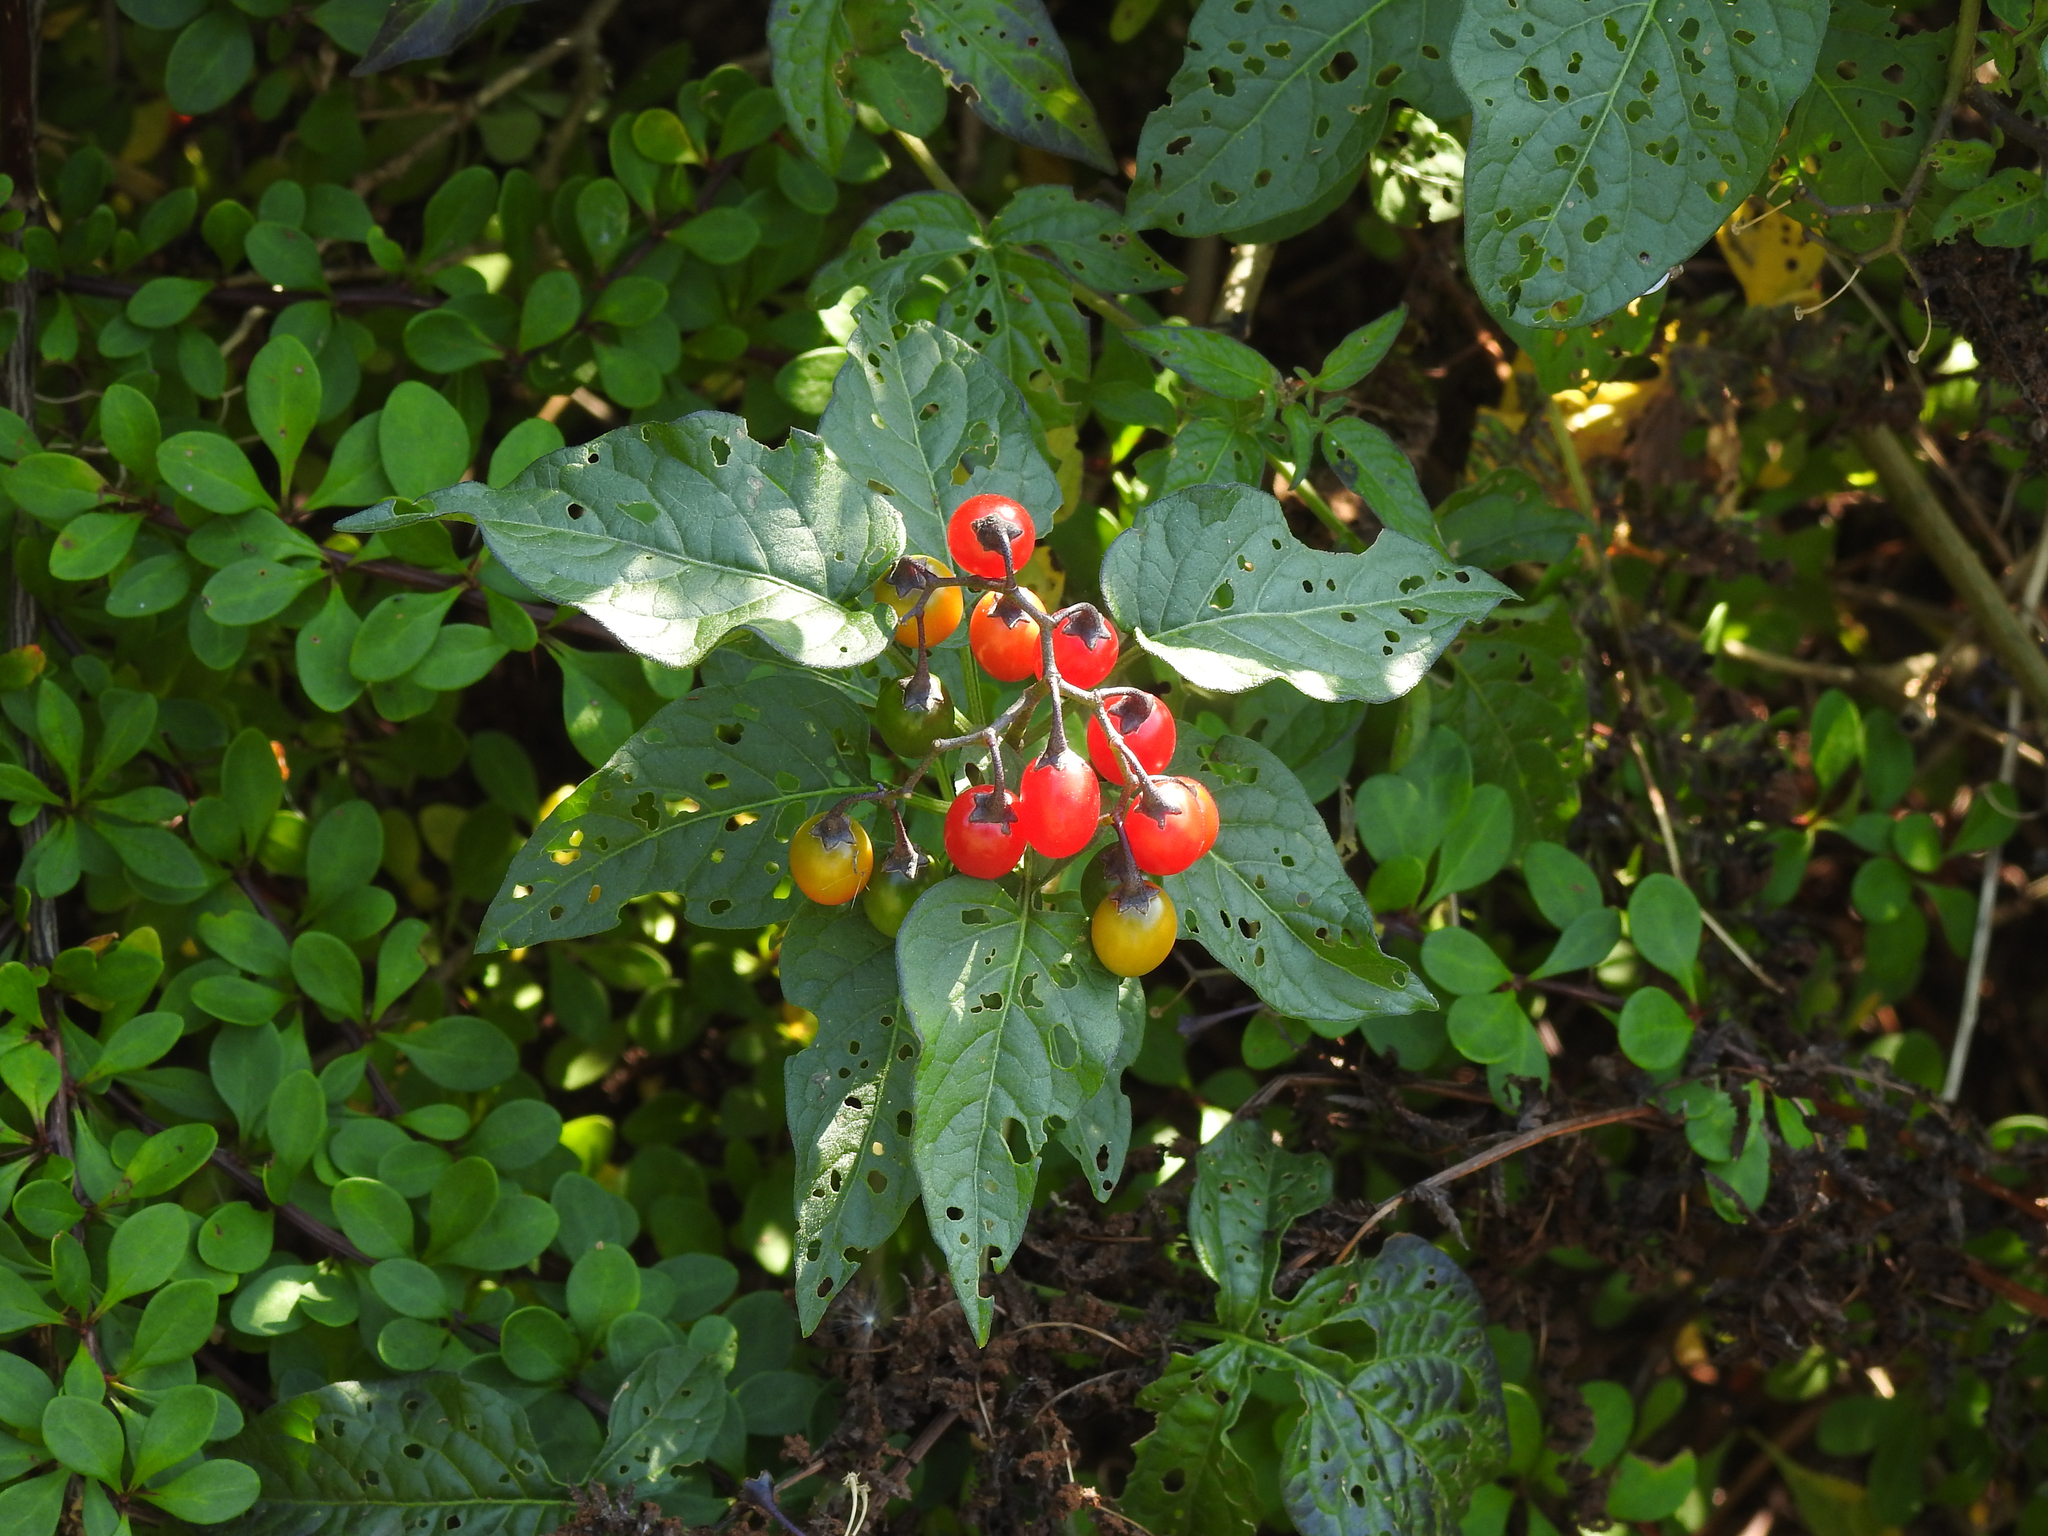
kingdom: Plantae
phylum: Tracheophyta
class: Magnoliopsida
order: Solanales
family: Solanaceae
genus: Solanum
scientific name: Solanum dulcamara
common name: Climbing nightshade
